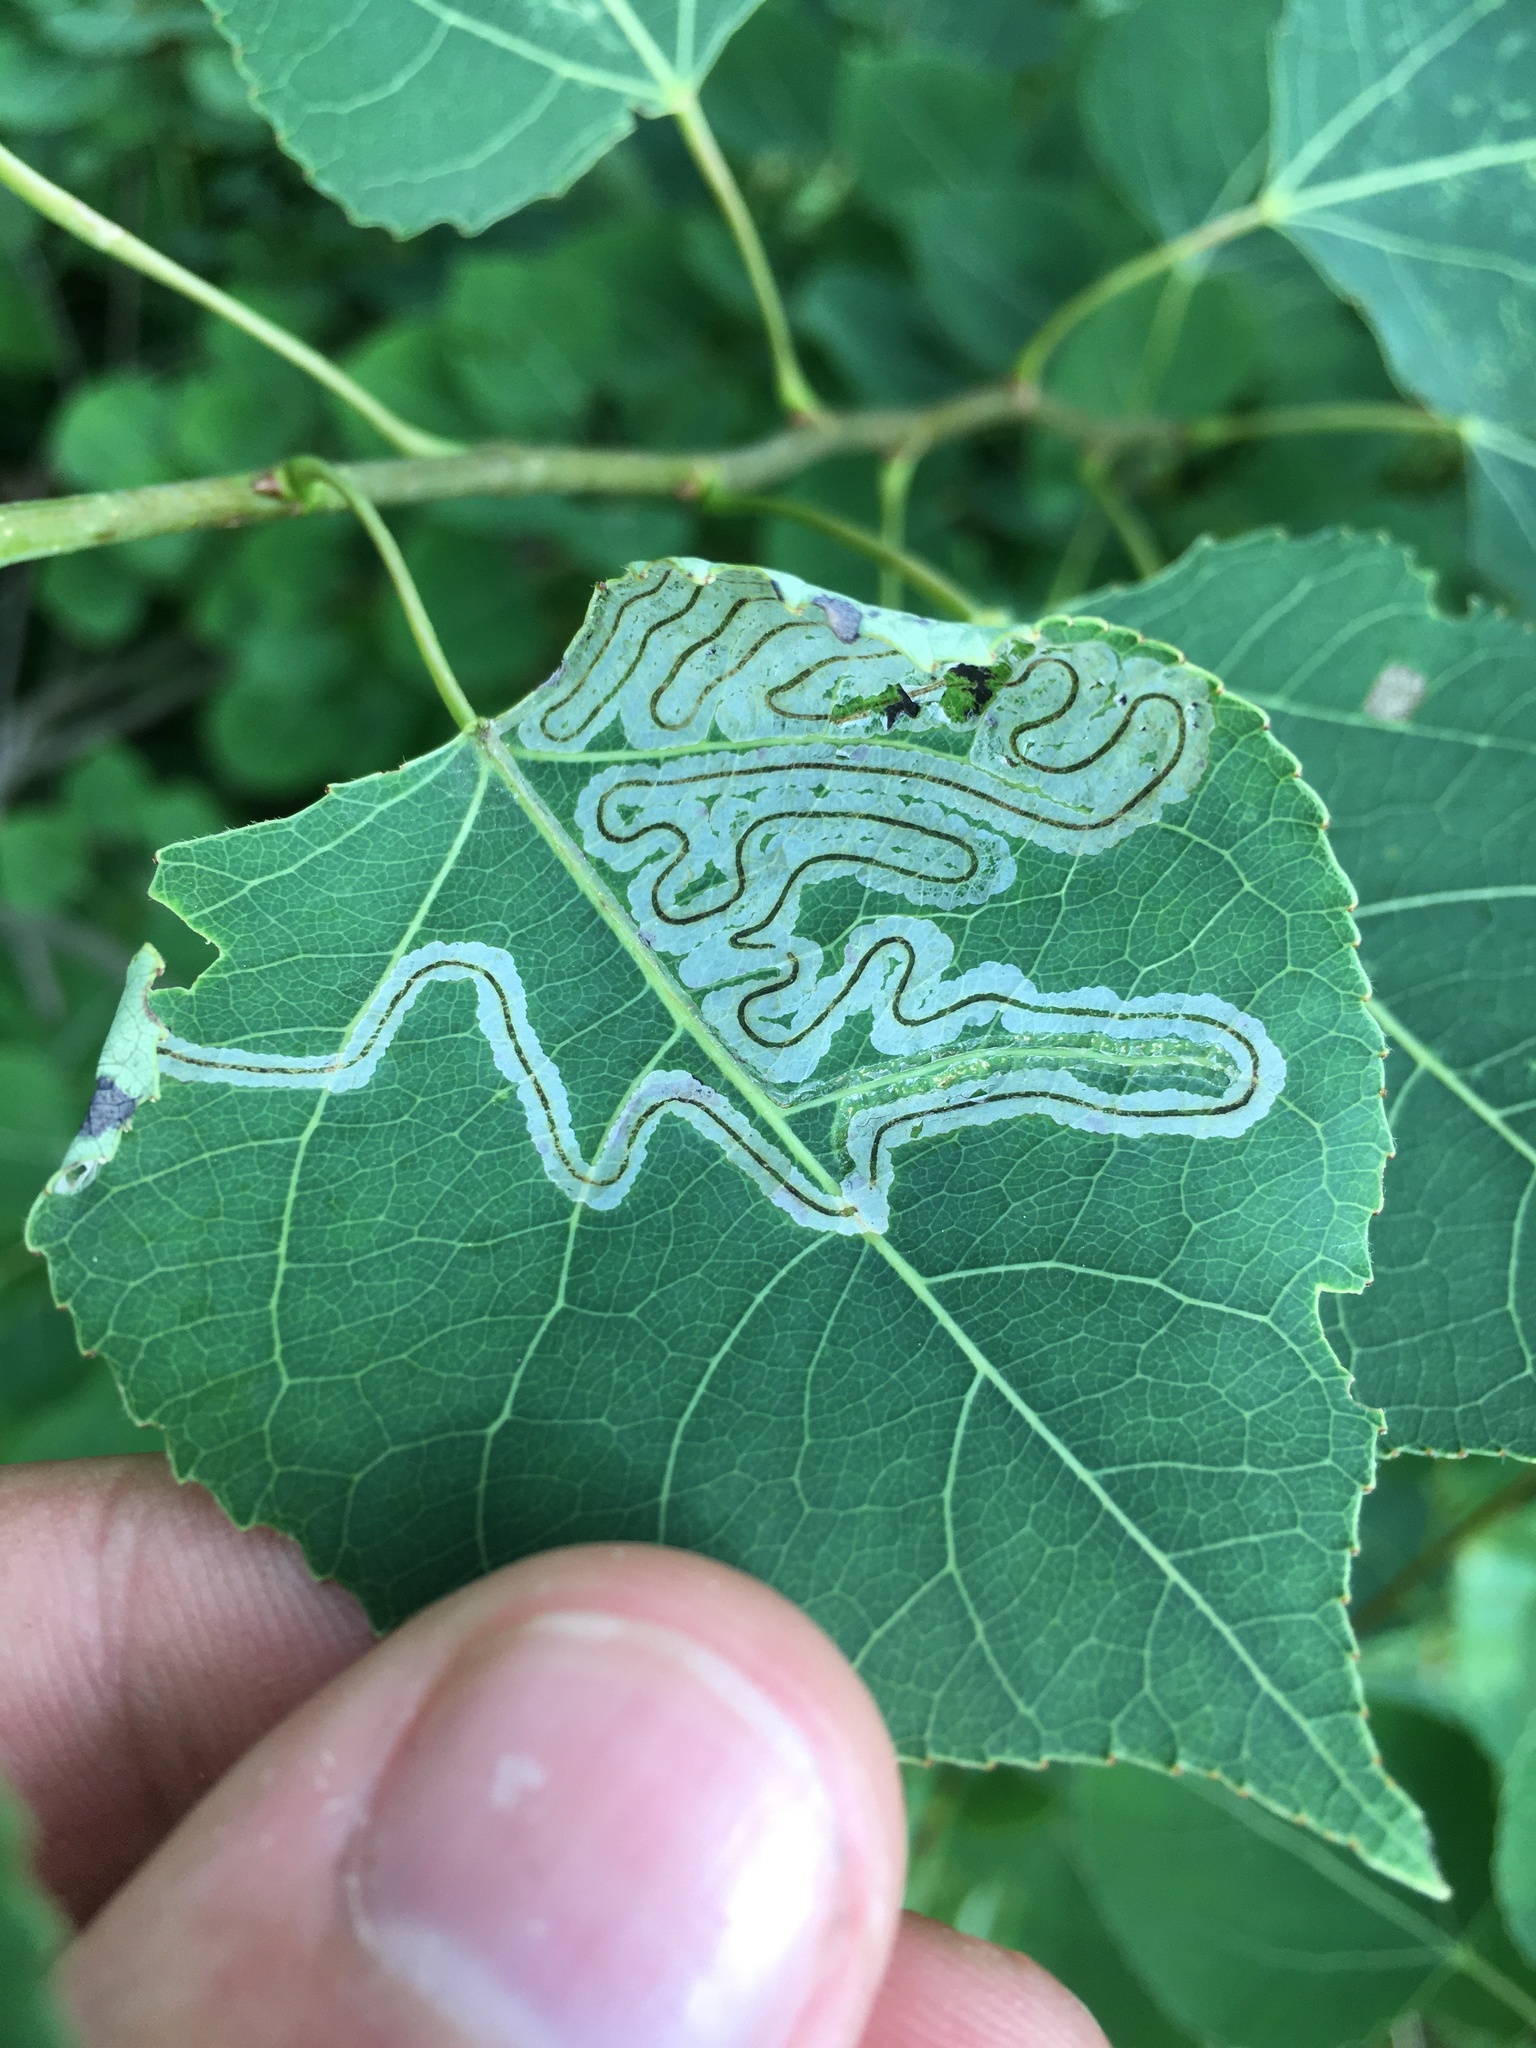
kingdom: Animalia
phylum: Arthropoda
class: Insecta
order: Lepidoptera
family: Gracillariidae
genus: Phyllocnistis
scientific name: Phyllocnistis populiella
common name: Aspen serpentine leafminer moth
